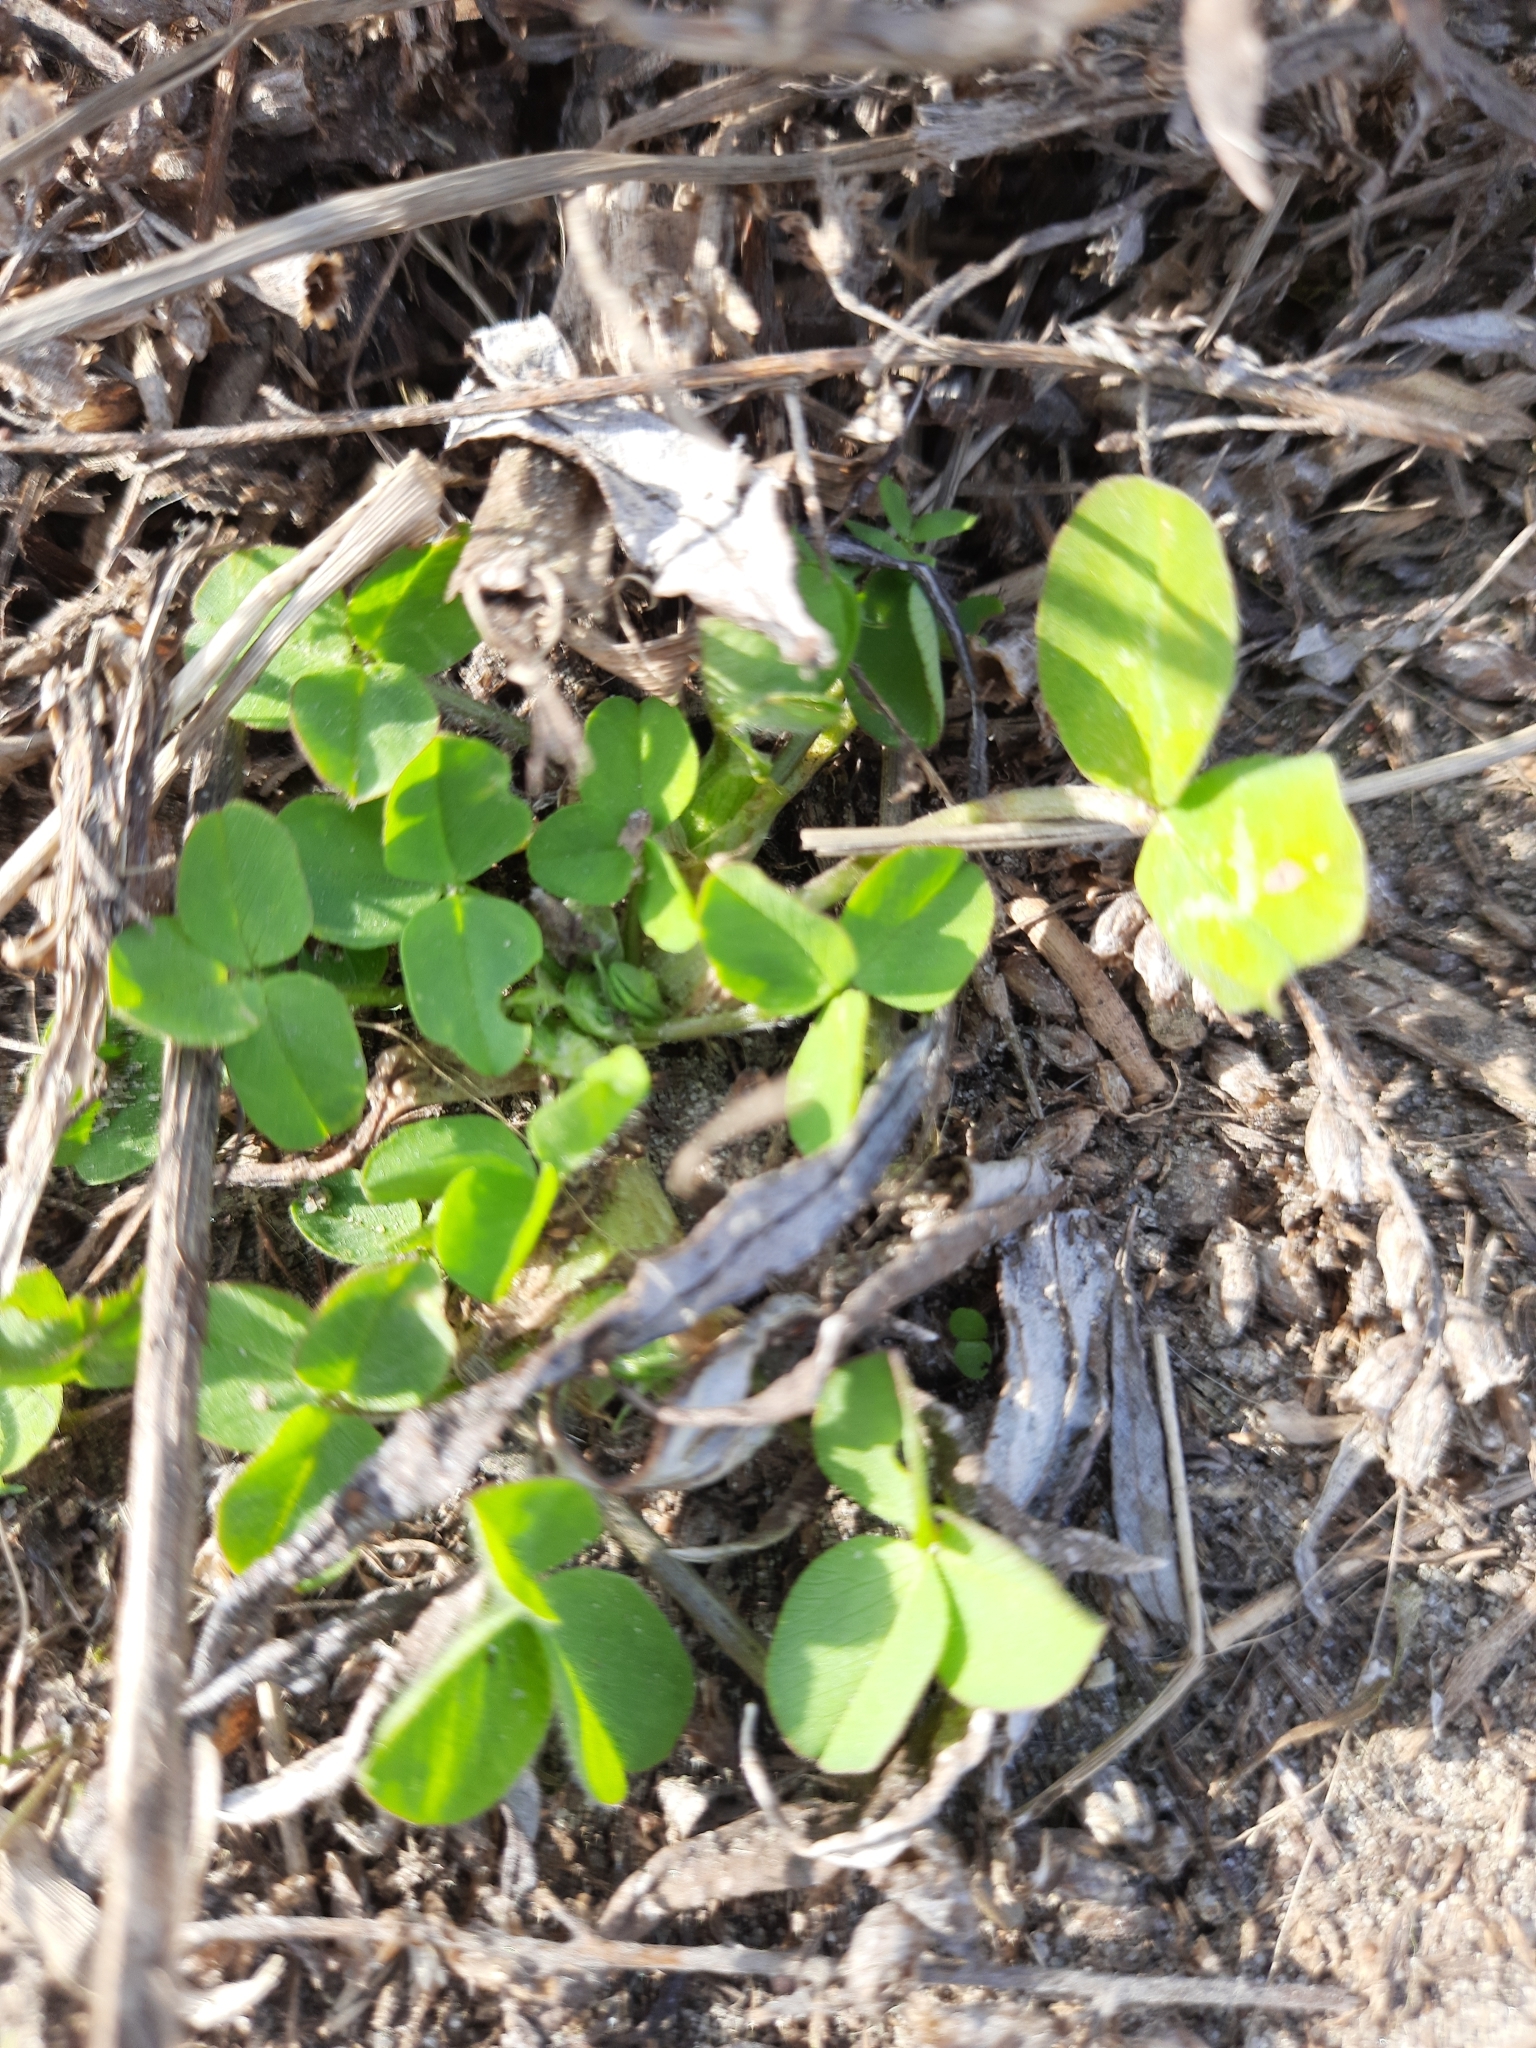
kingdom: Plantae
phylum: Tracheophyta
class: Magnoliopsida
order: Fabales
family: Fabaceae
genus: Trifolium
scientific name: Trifolium pratense
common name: Red clover
